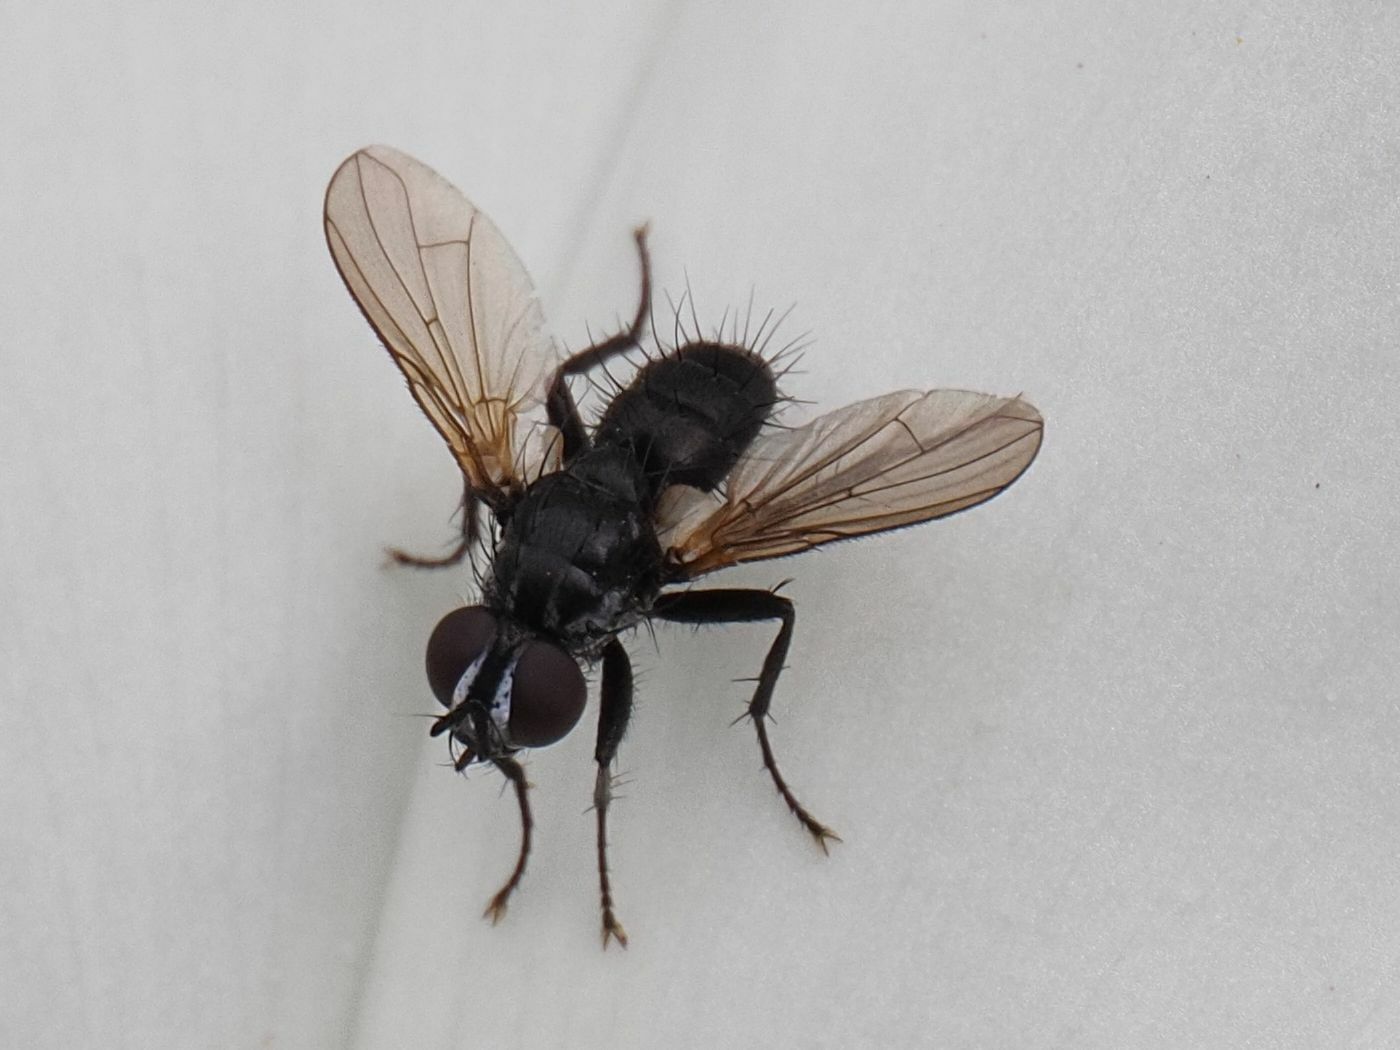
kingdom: Animalia
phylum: Arthropoda
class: Insecta
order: Diptera
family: Tachinidae
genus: Phania
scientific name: Phania funesta
